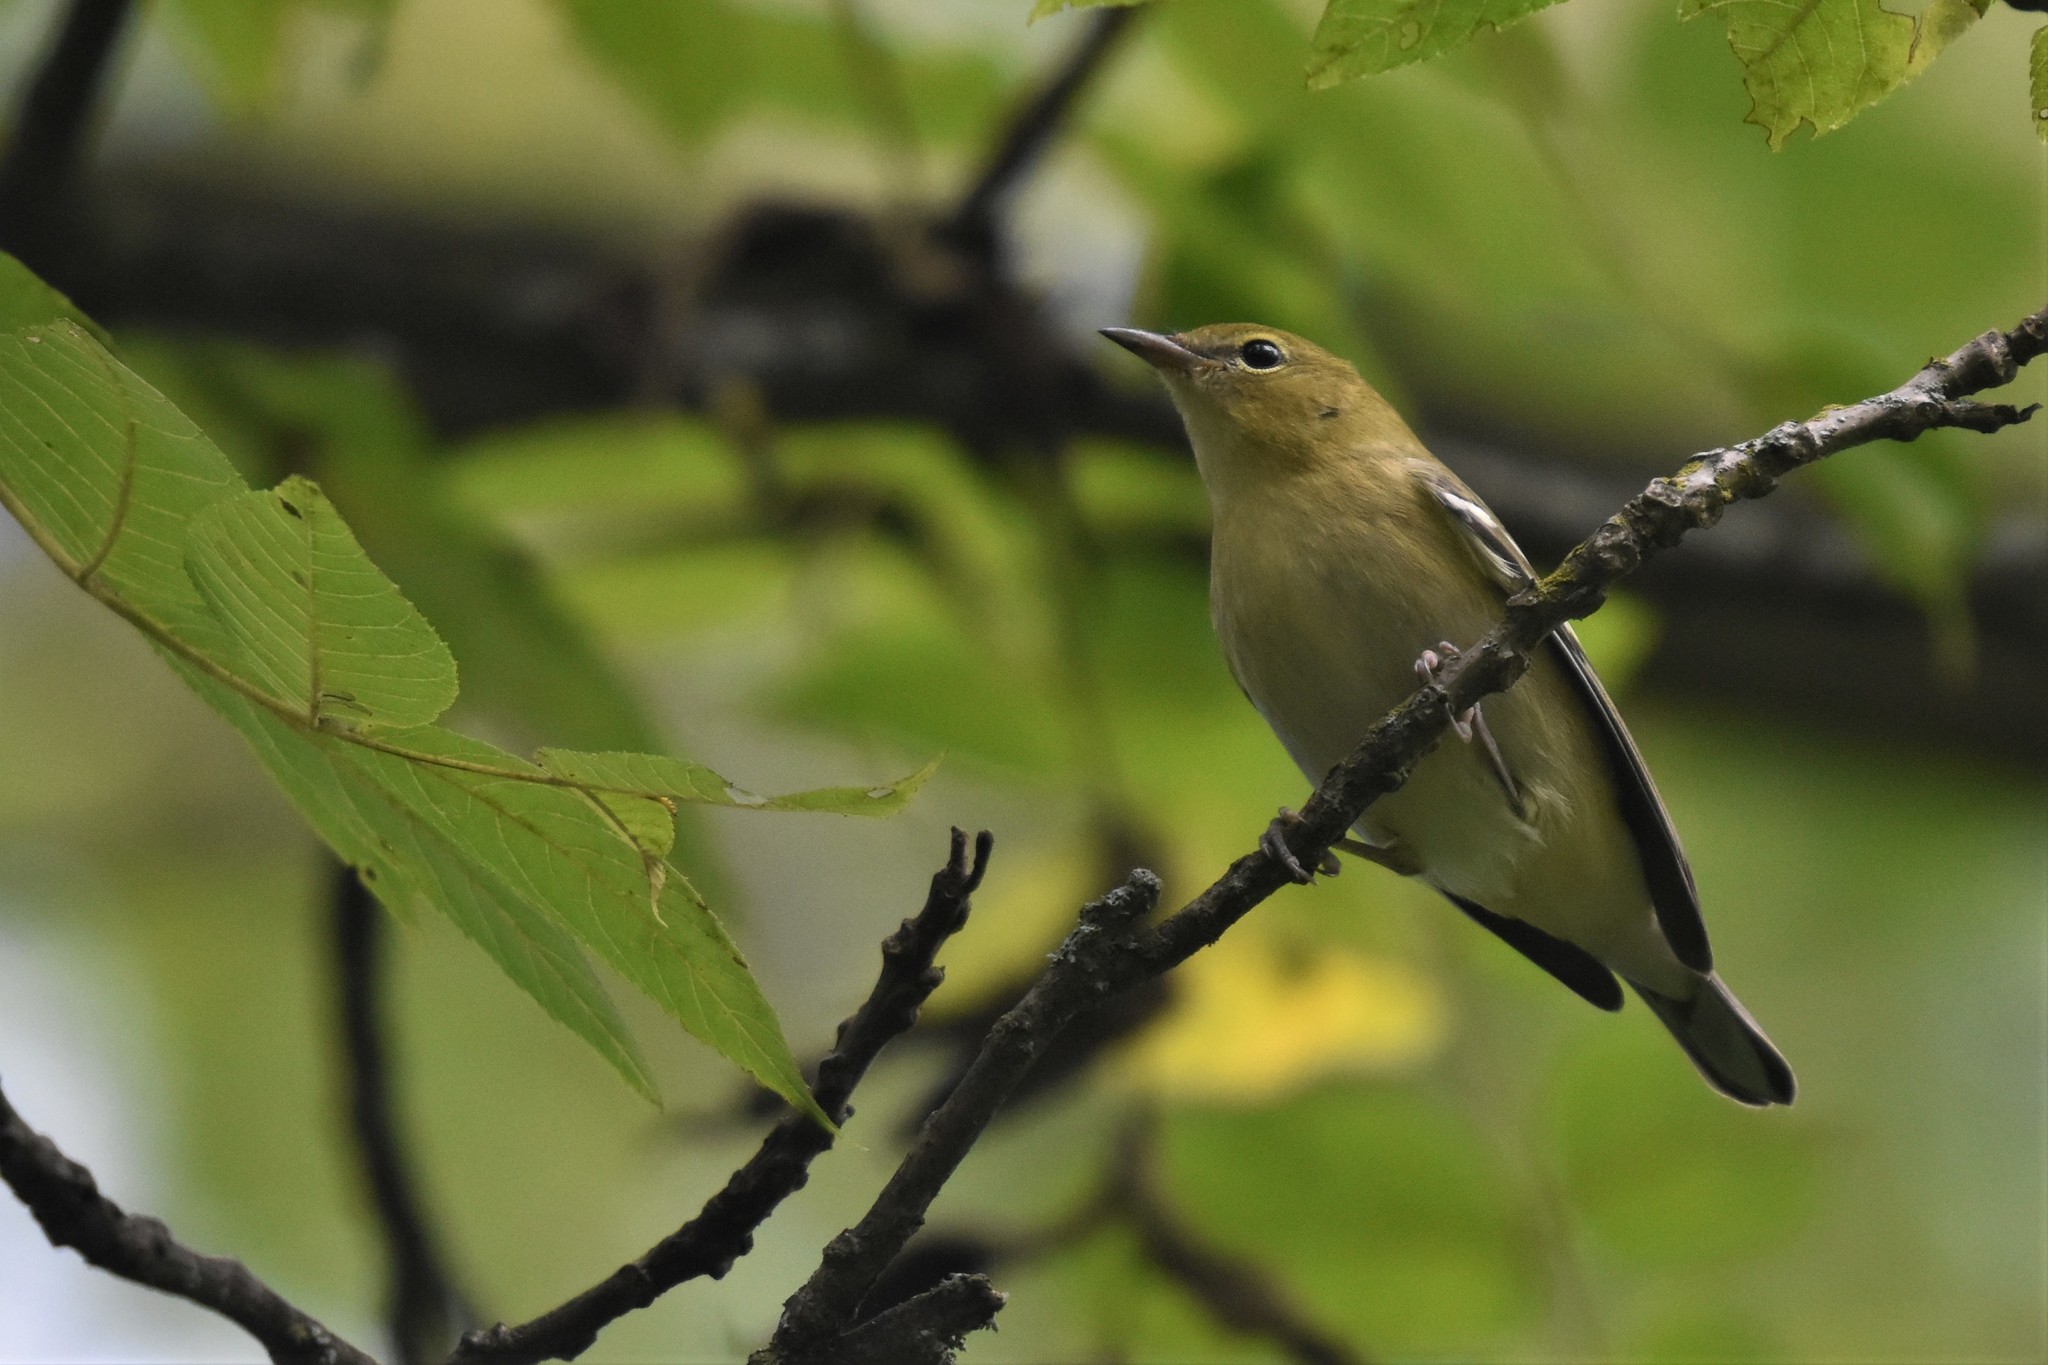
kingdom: Animalia
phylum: Chordata
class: Aves
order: Passeriformes
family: Parulidae
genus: Setophaga
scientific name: Setophaga castanea
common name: Bay-breasted warbler
